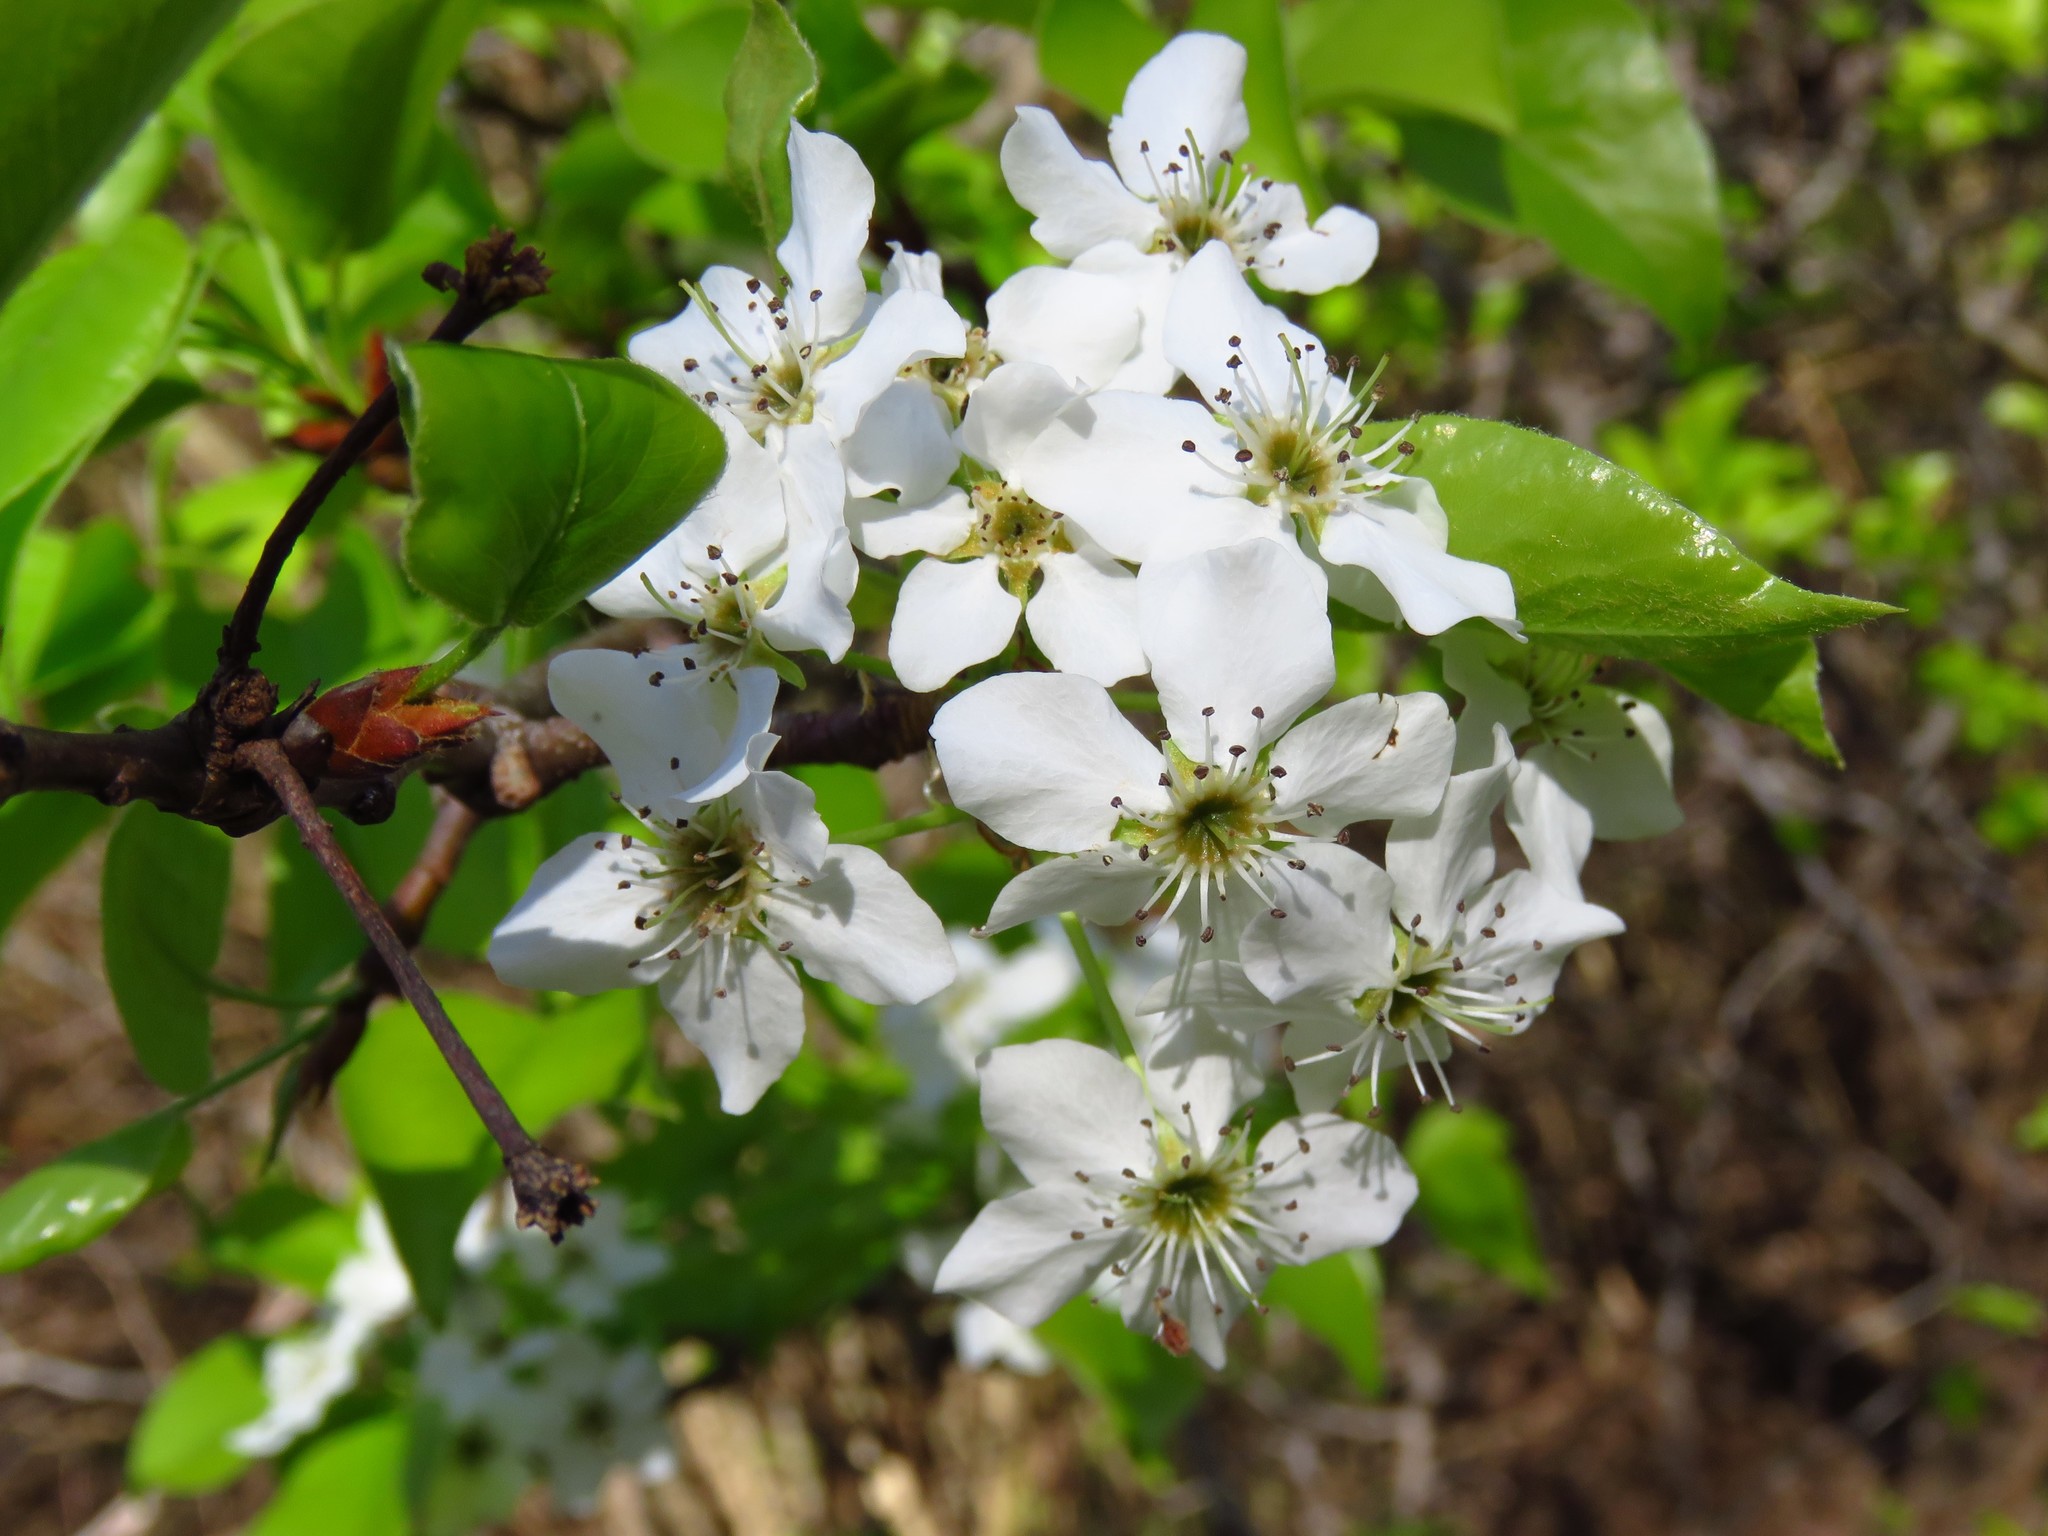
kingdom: Plantae
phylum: Tracheophyta
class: Magnoliopsida
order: Rosales
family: Rosaceae
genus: Pyrus
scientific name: Pyrus calleryana
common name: Callery pear
